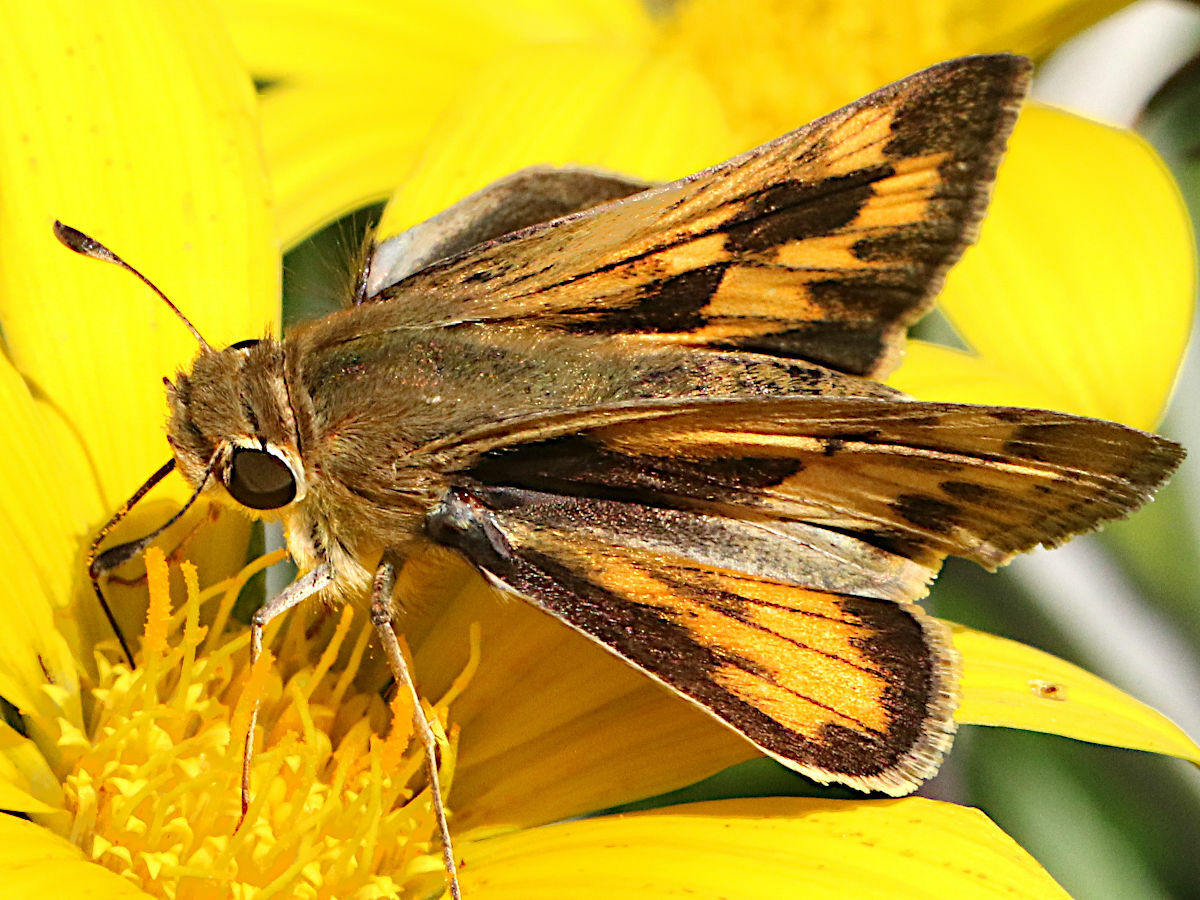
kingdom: Animalia
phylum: Arthropoda
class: Insecta
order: Lepidoptera
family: Hesperiidae
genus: Hylephila
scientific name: Hylephila phyleus
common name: Fiery skipper
